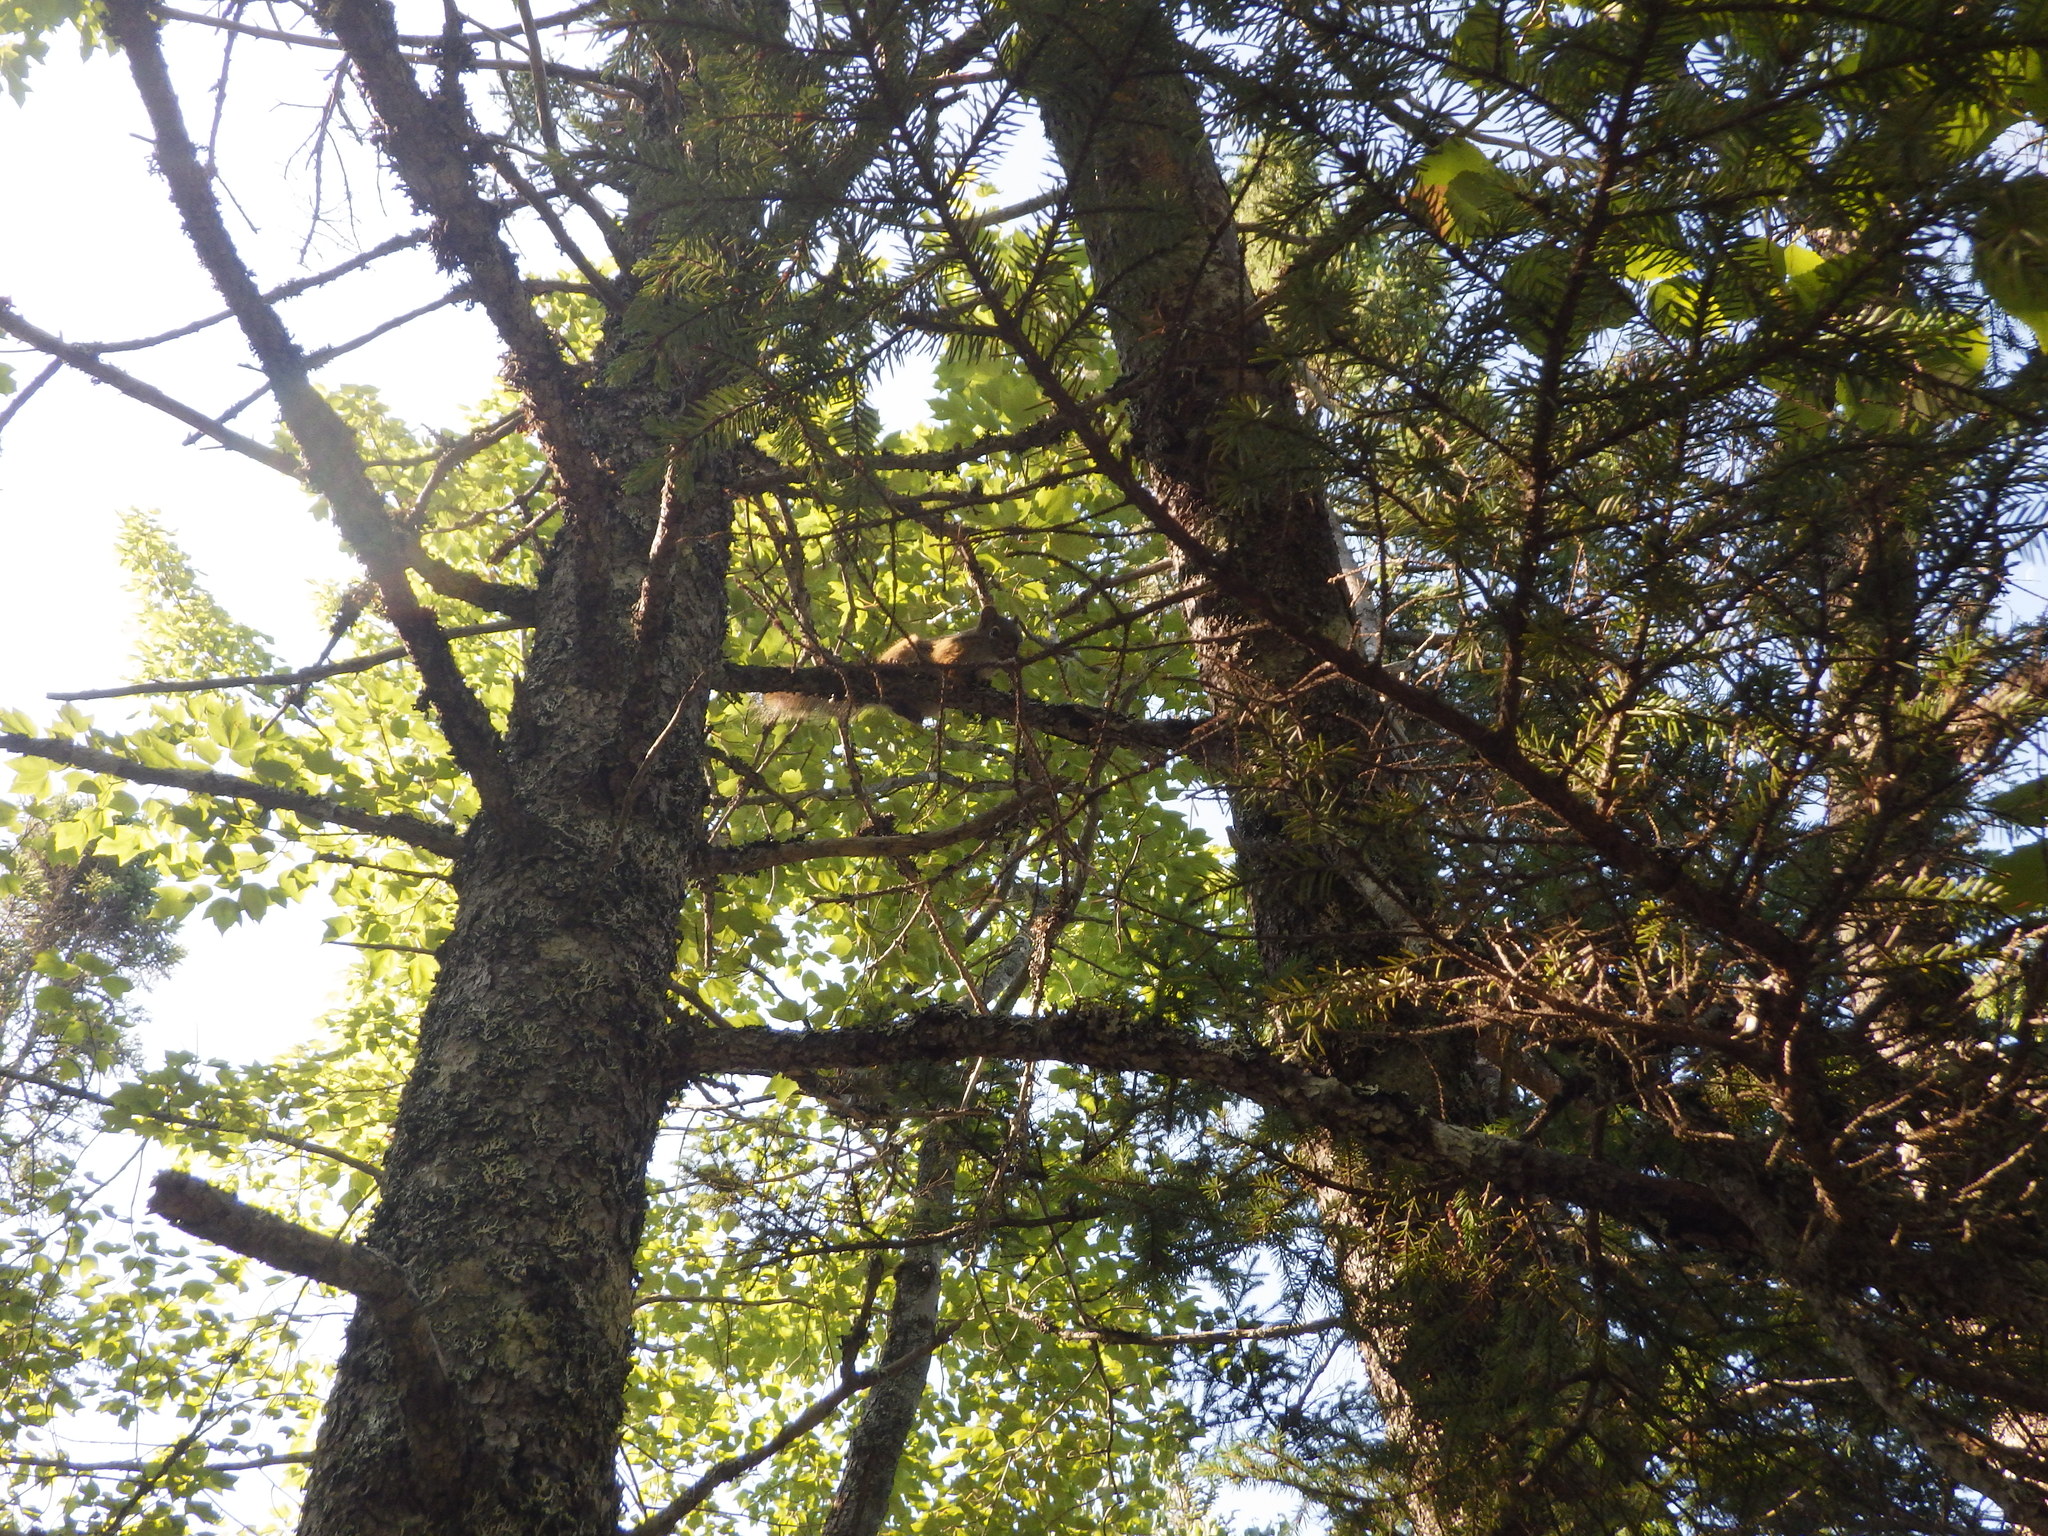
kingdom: Animalia
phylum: Chordata
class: Mammalia
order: Rodentia
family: Sciuridae
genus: Tamiasciurus
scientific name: Tamiasciurus hudsonicus
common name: Red squirrel
